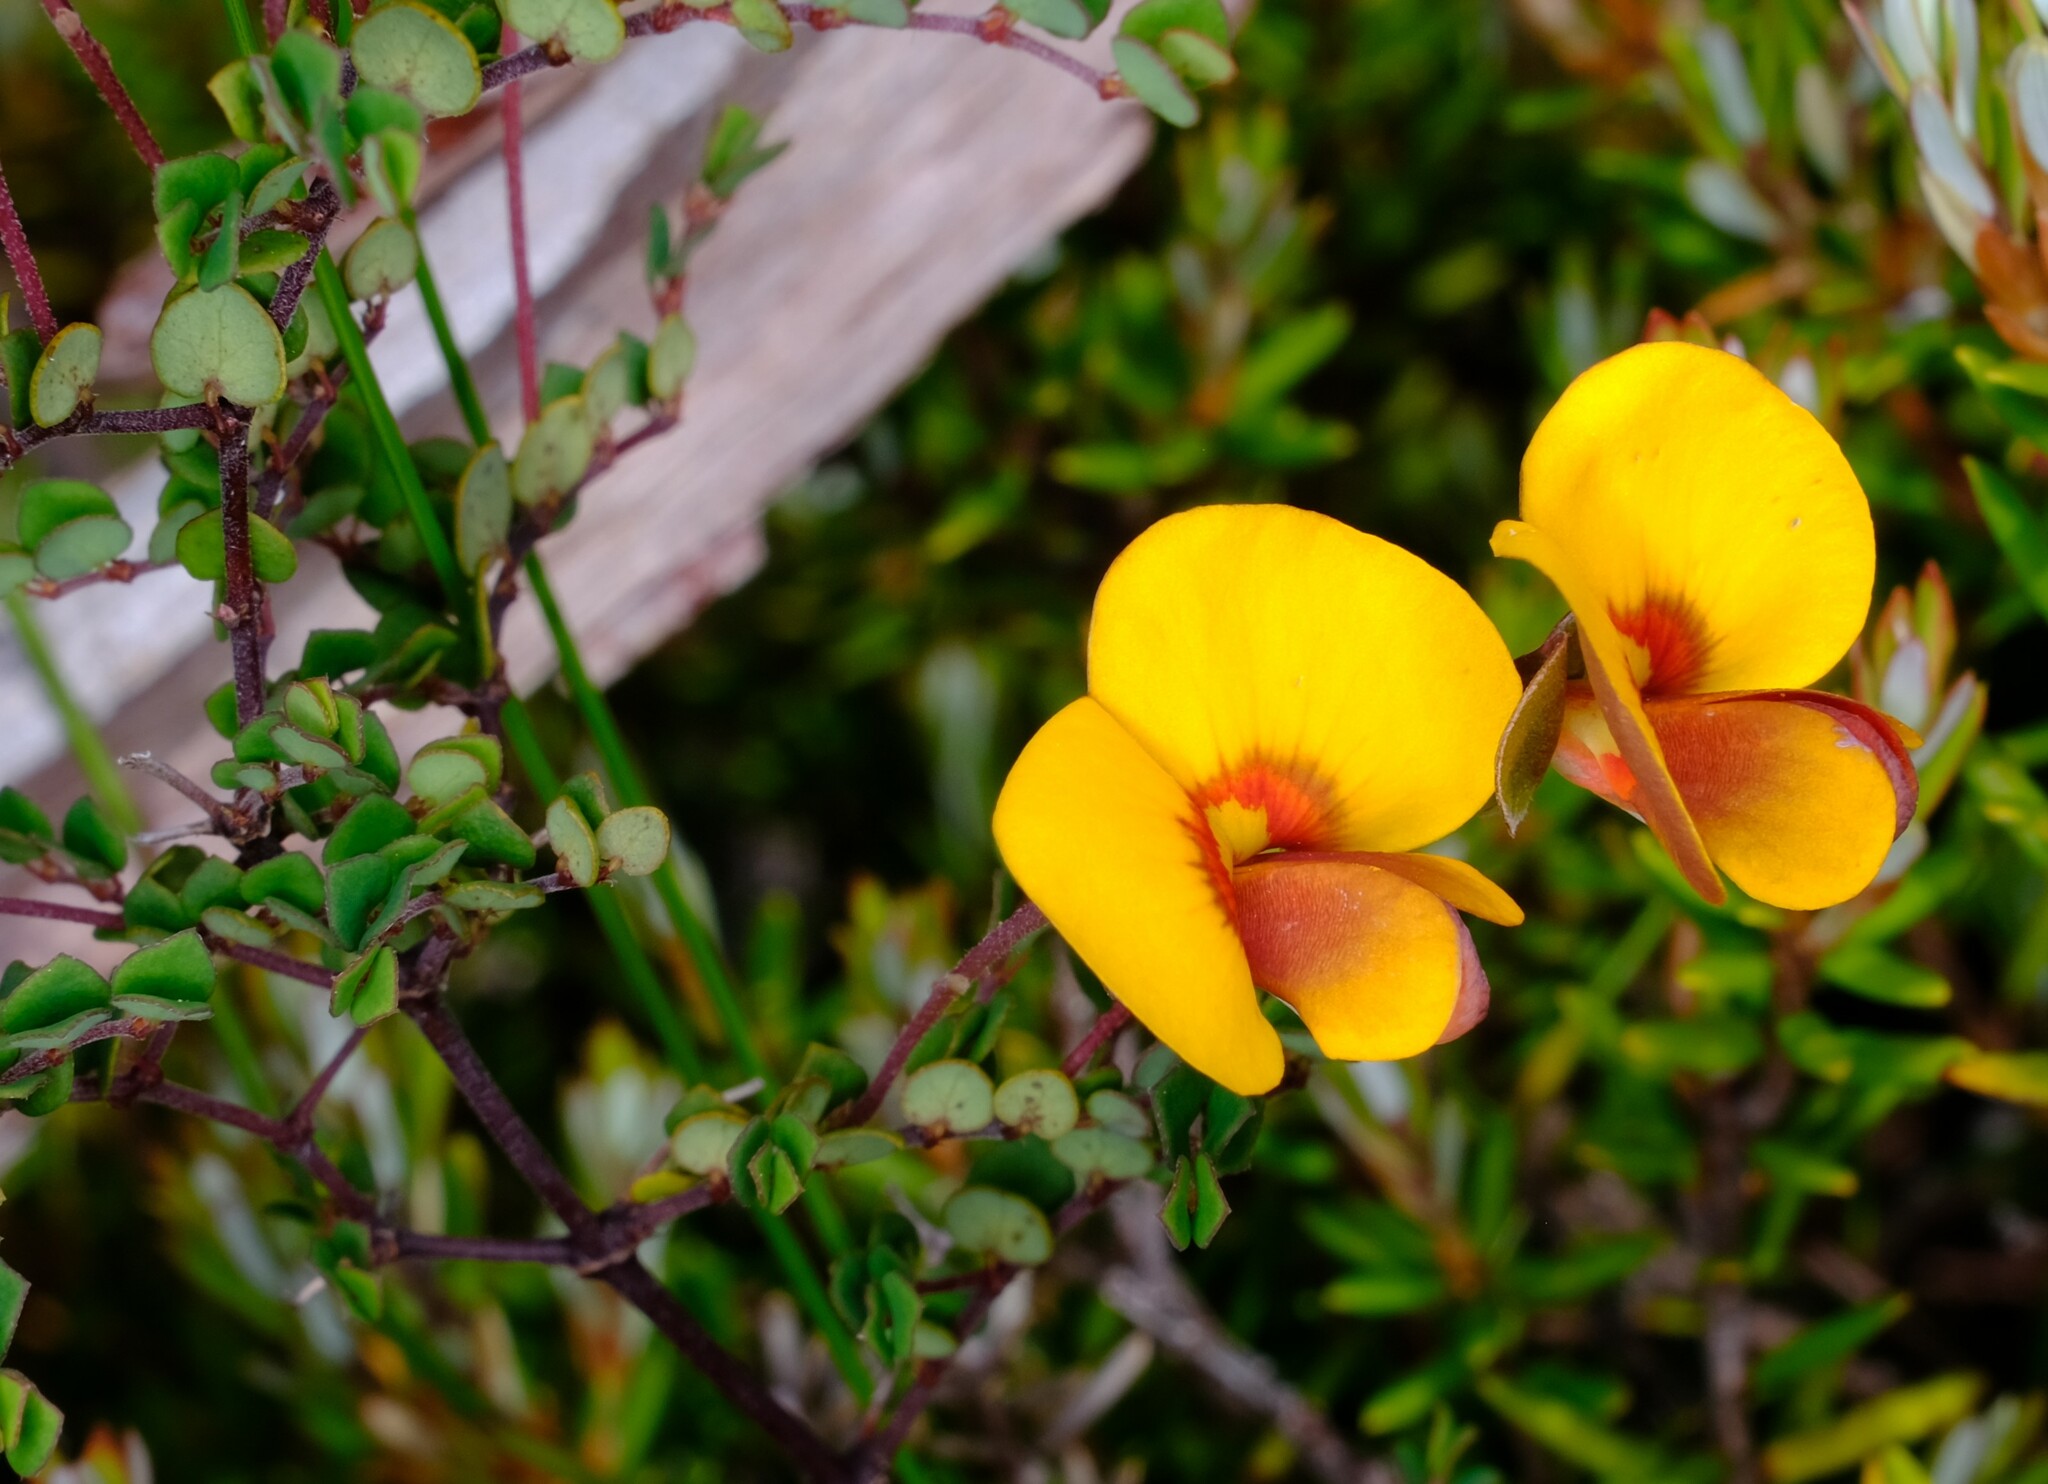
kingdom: Plantae
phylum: Tracheophyta
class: Magnoliopsida
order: Fabales
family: Fabaceae
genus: Bossiaea
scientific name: Bossiaea hendersonii
